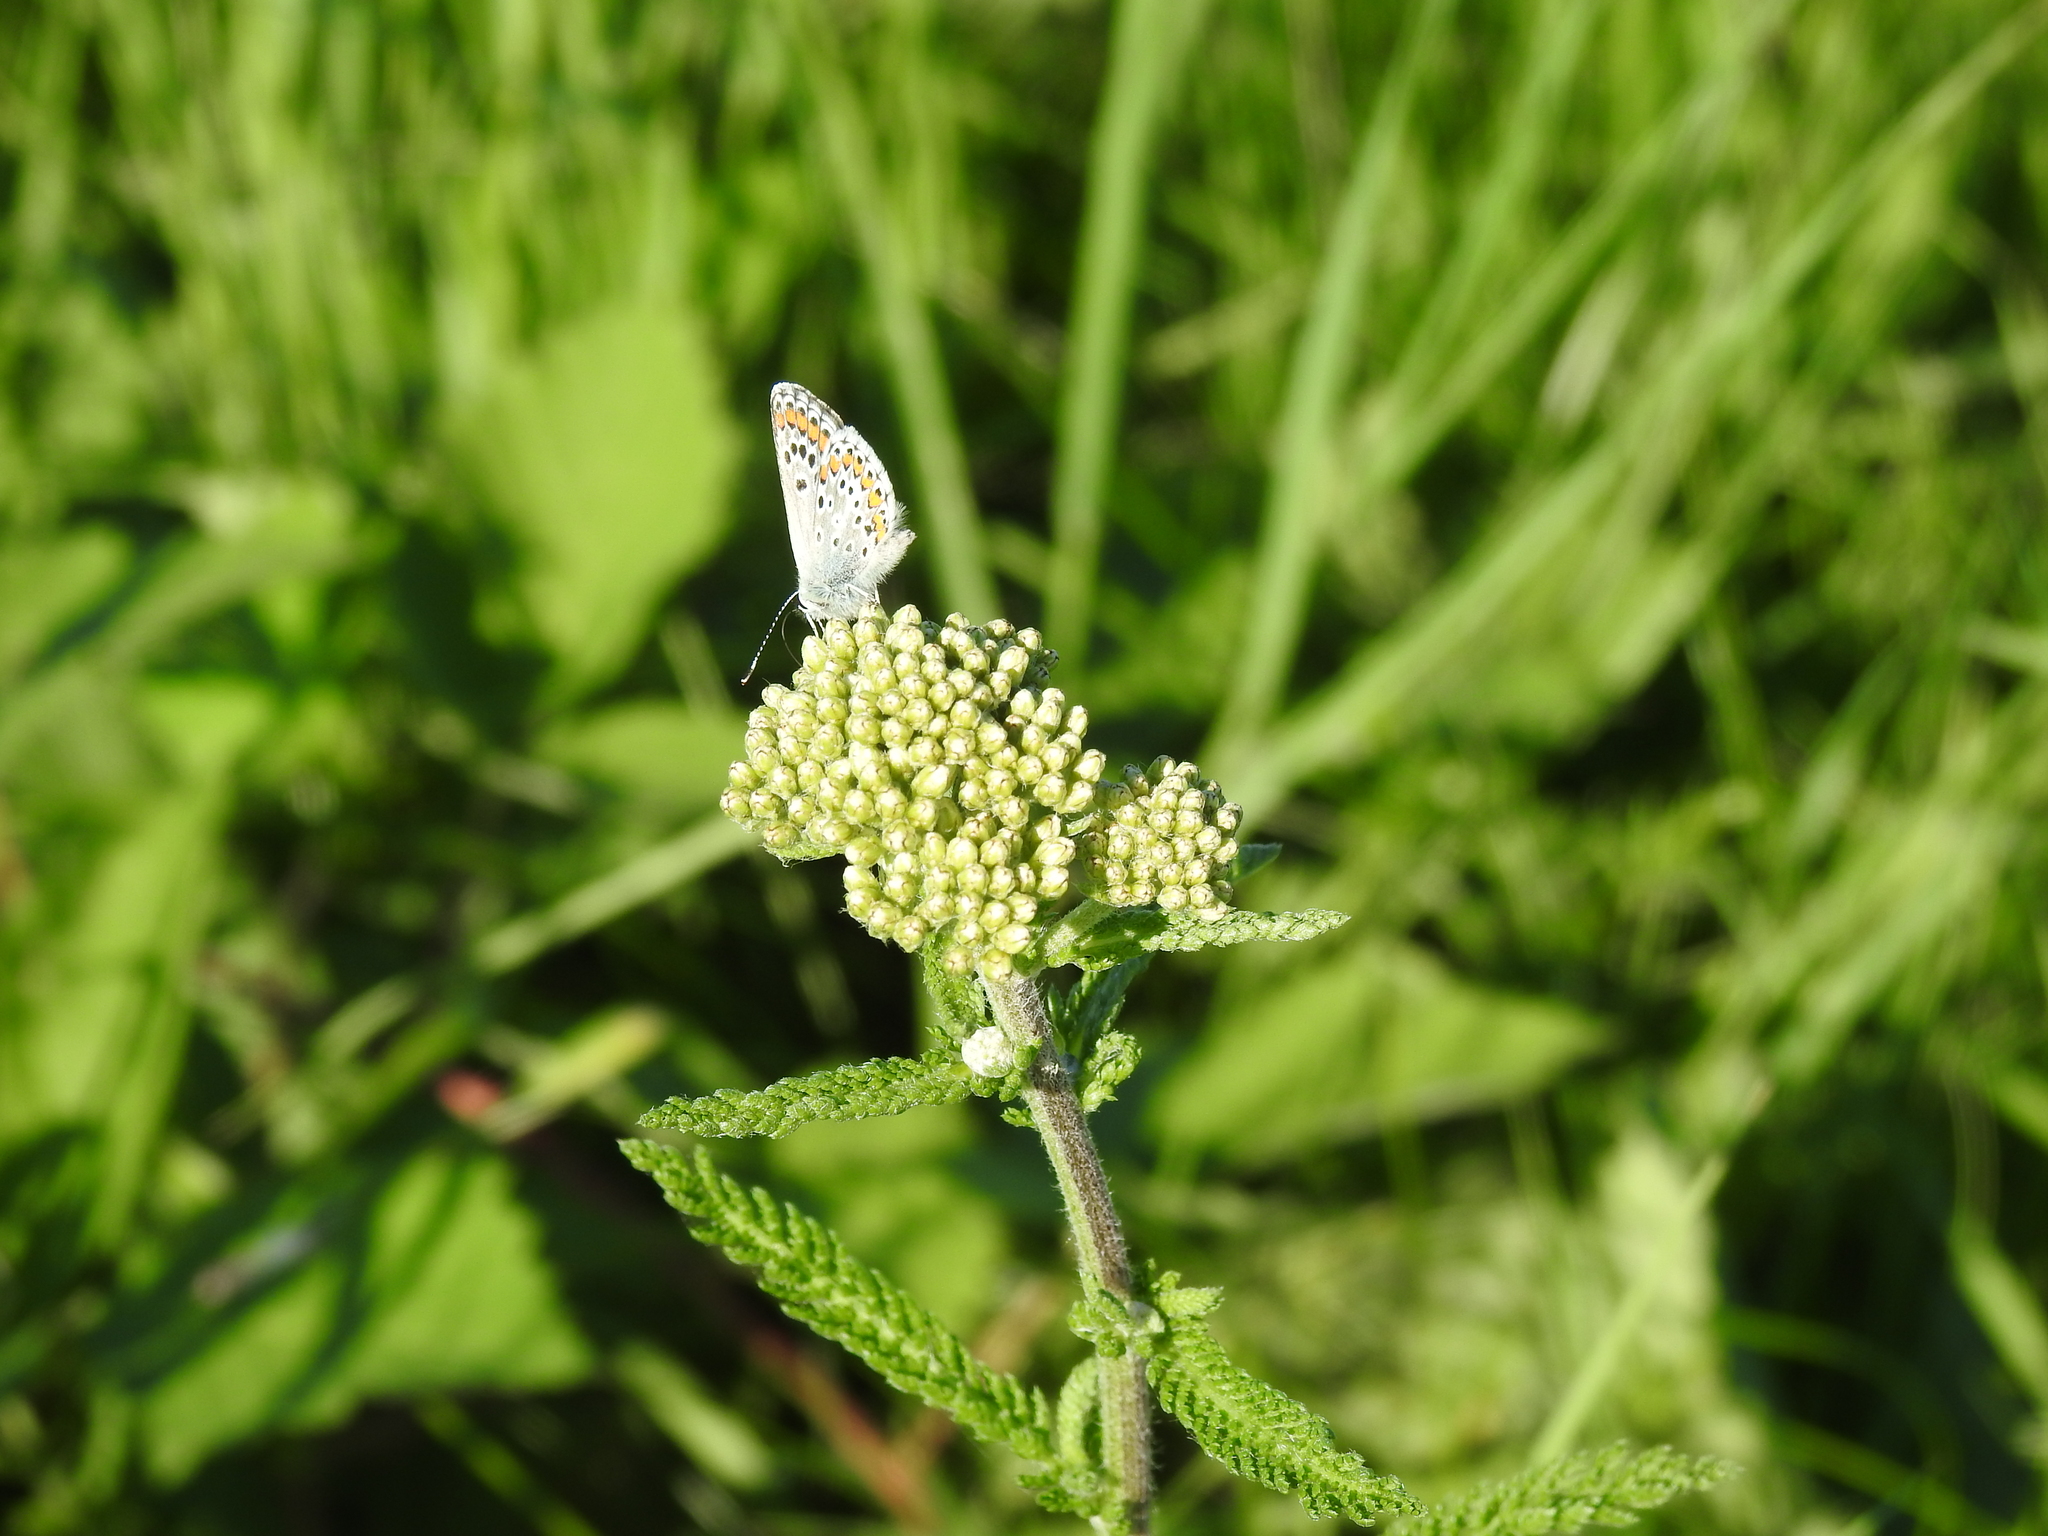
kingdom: Animalia
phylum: Arthropoda
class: Insecta
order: Lepidoptera
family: Lycaenidae
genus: Aricia
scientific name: Aricia agestis
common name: Brown argus
